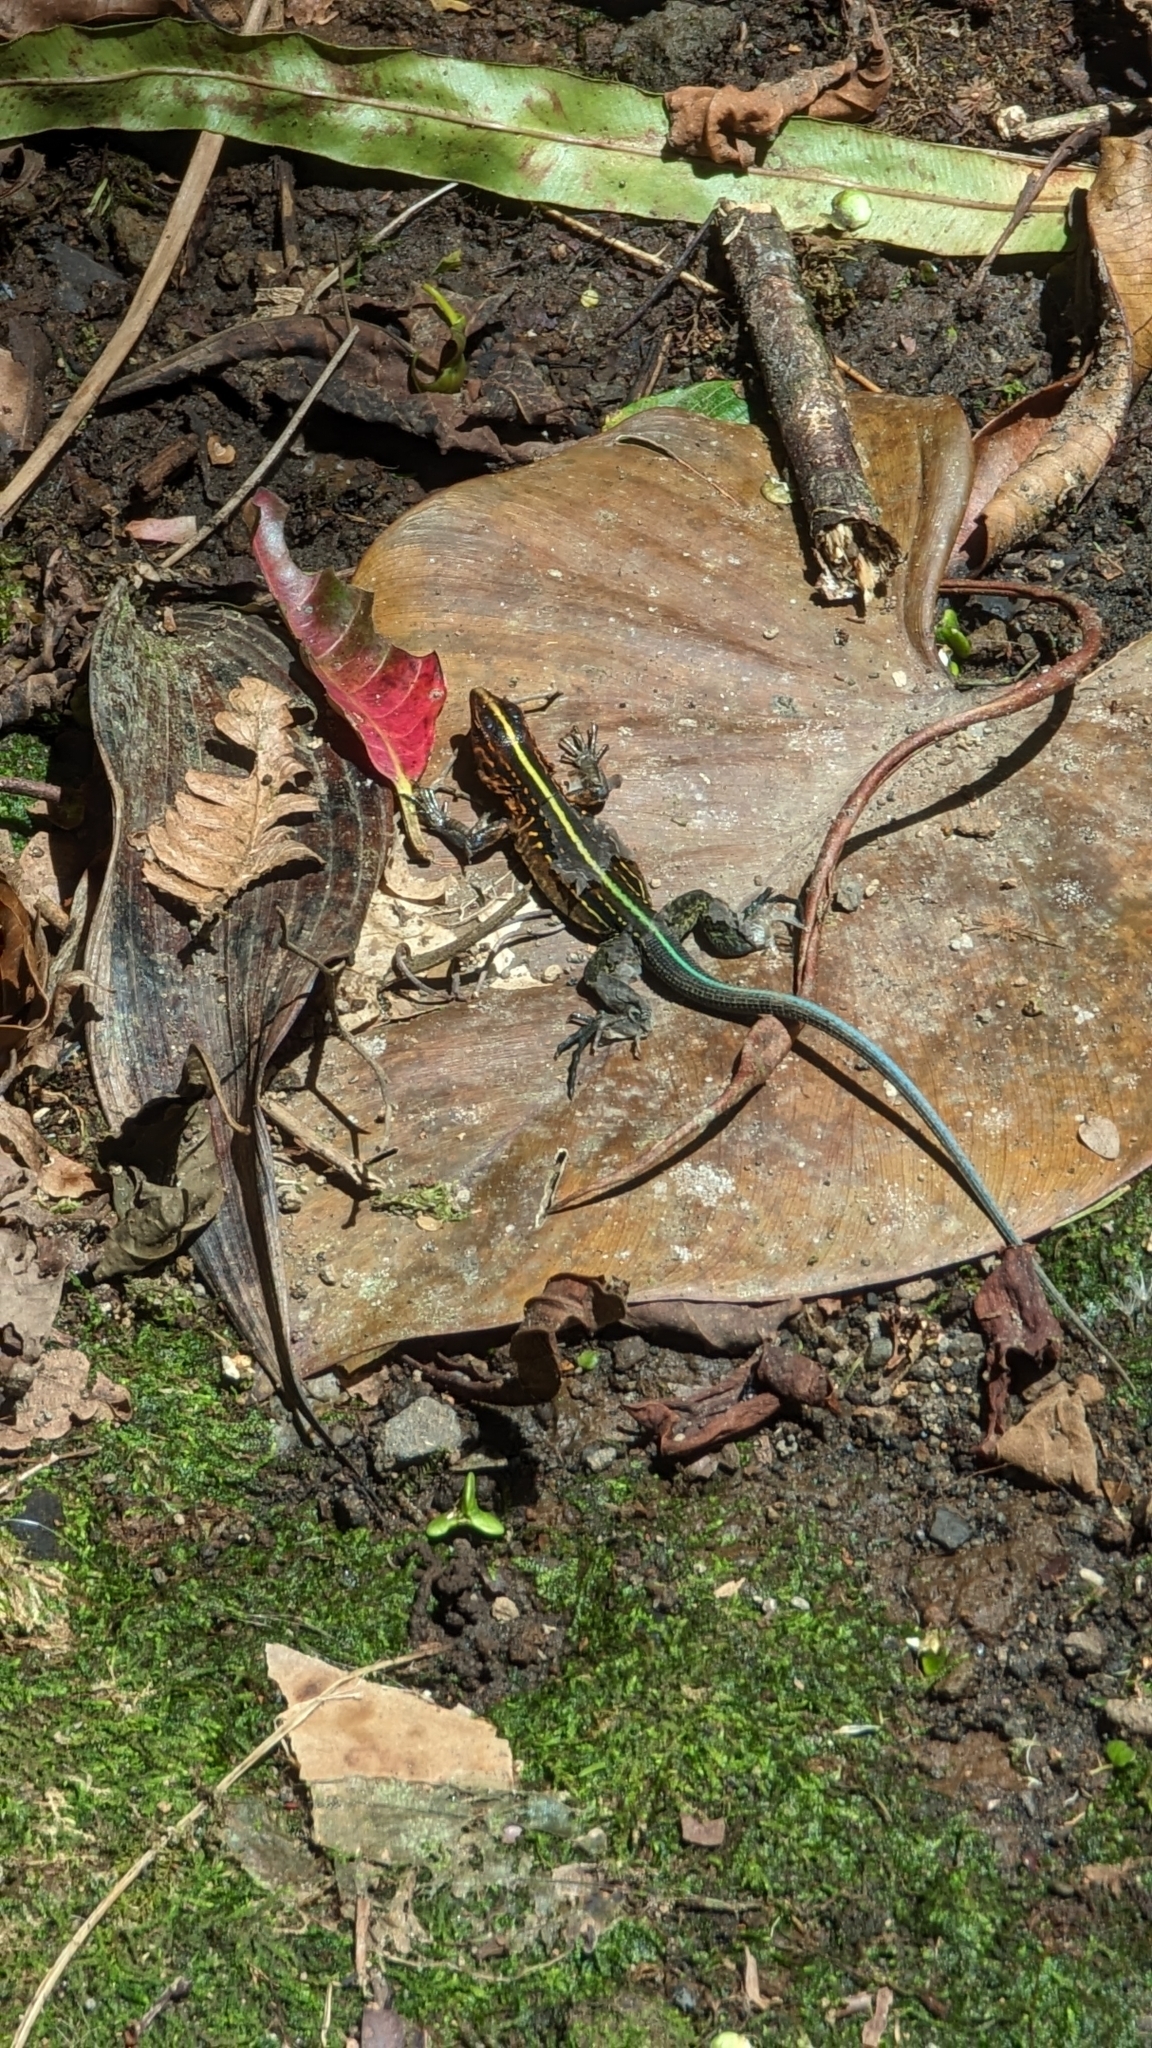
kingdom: Animalia
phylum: Chordata
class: Squamata
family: Teiidae
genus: Holcosus
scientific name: Holcosus festivus
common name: Middle american ameiva
